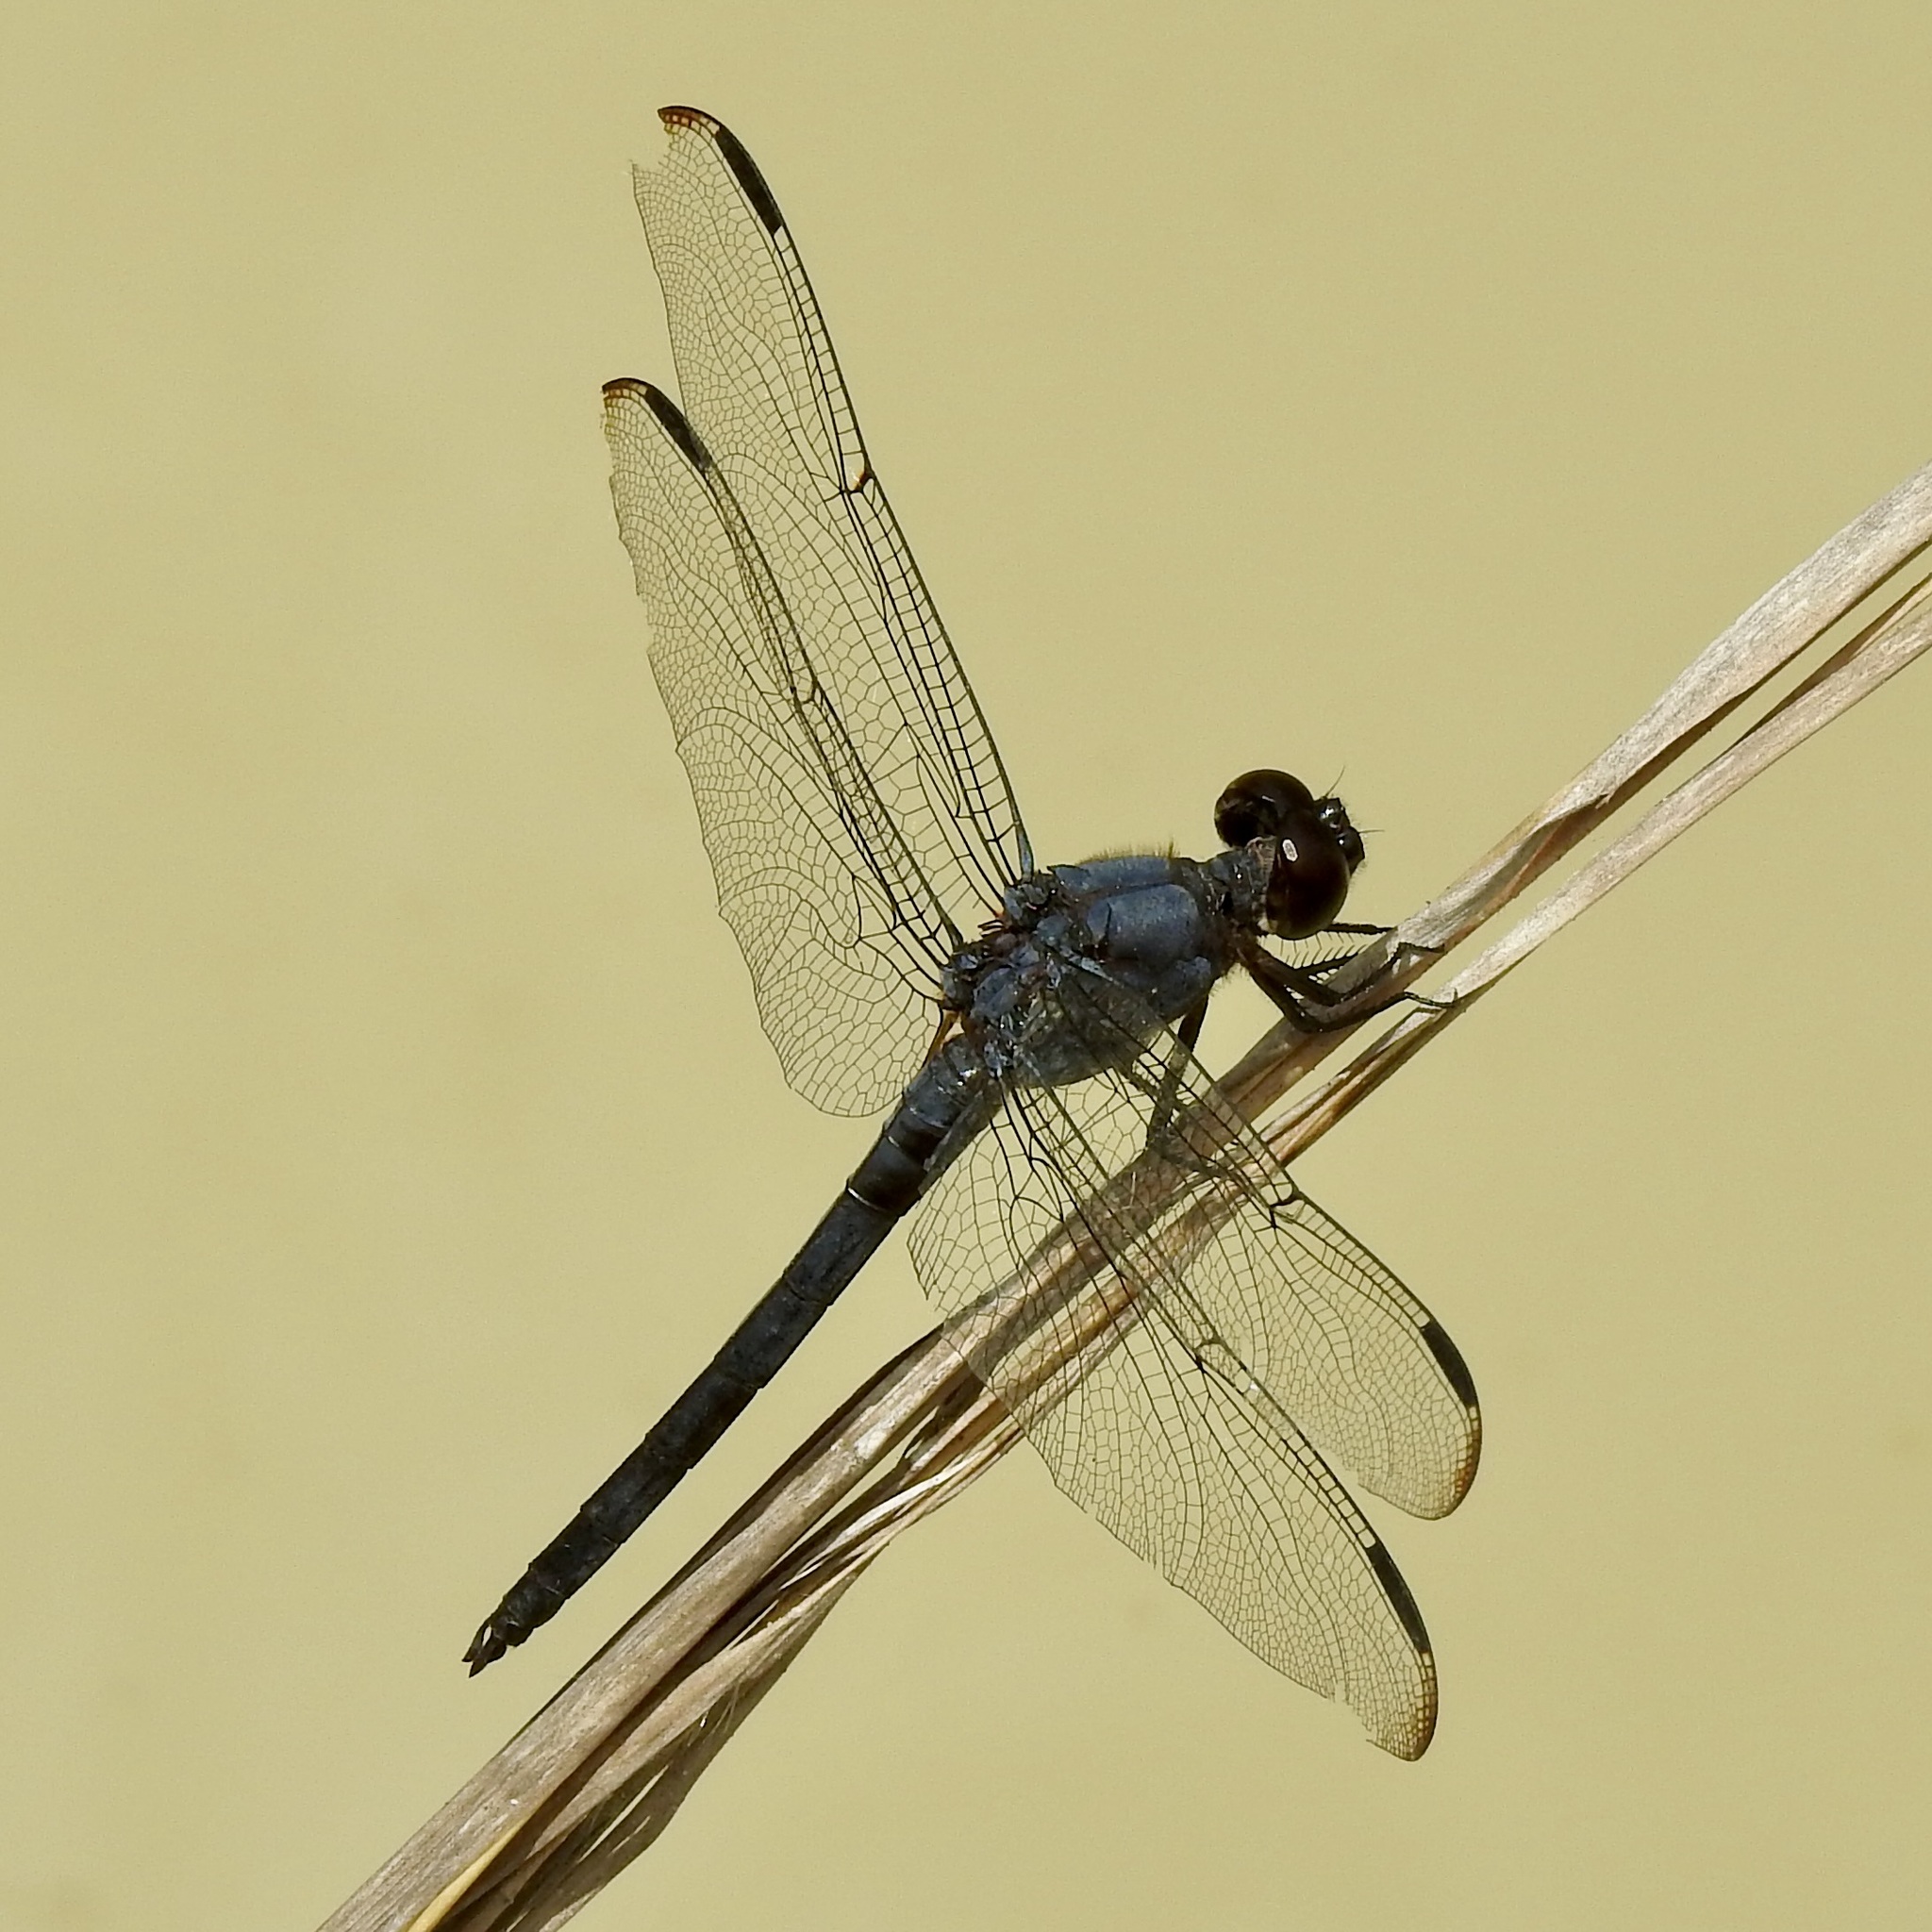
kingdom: Animalia
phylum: Arthropoda
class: Insecta
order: Odonata
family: Libellulidae
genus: Libellula
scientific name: Libellula incesta
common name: Slaty skimmer
